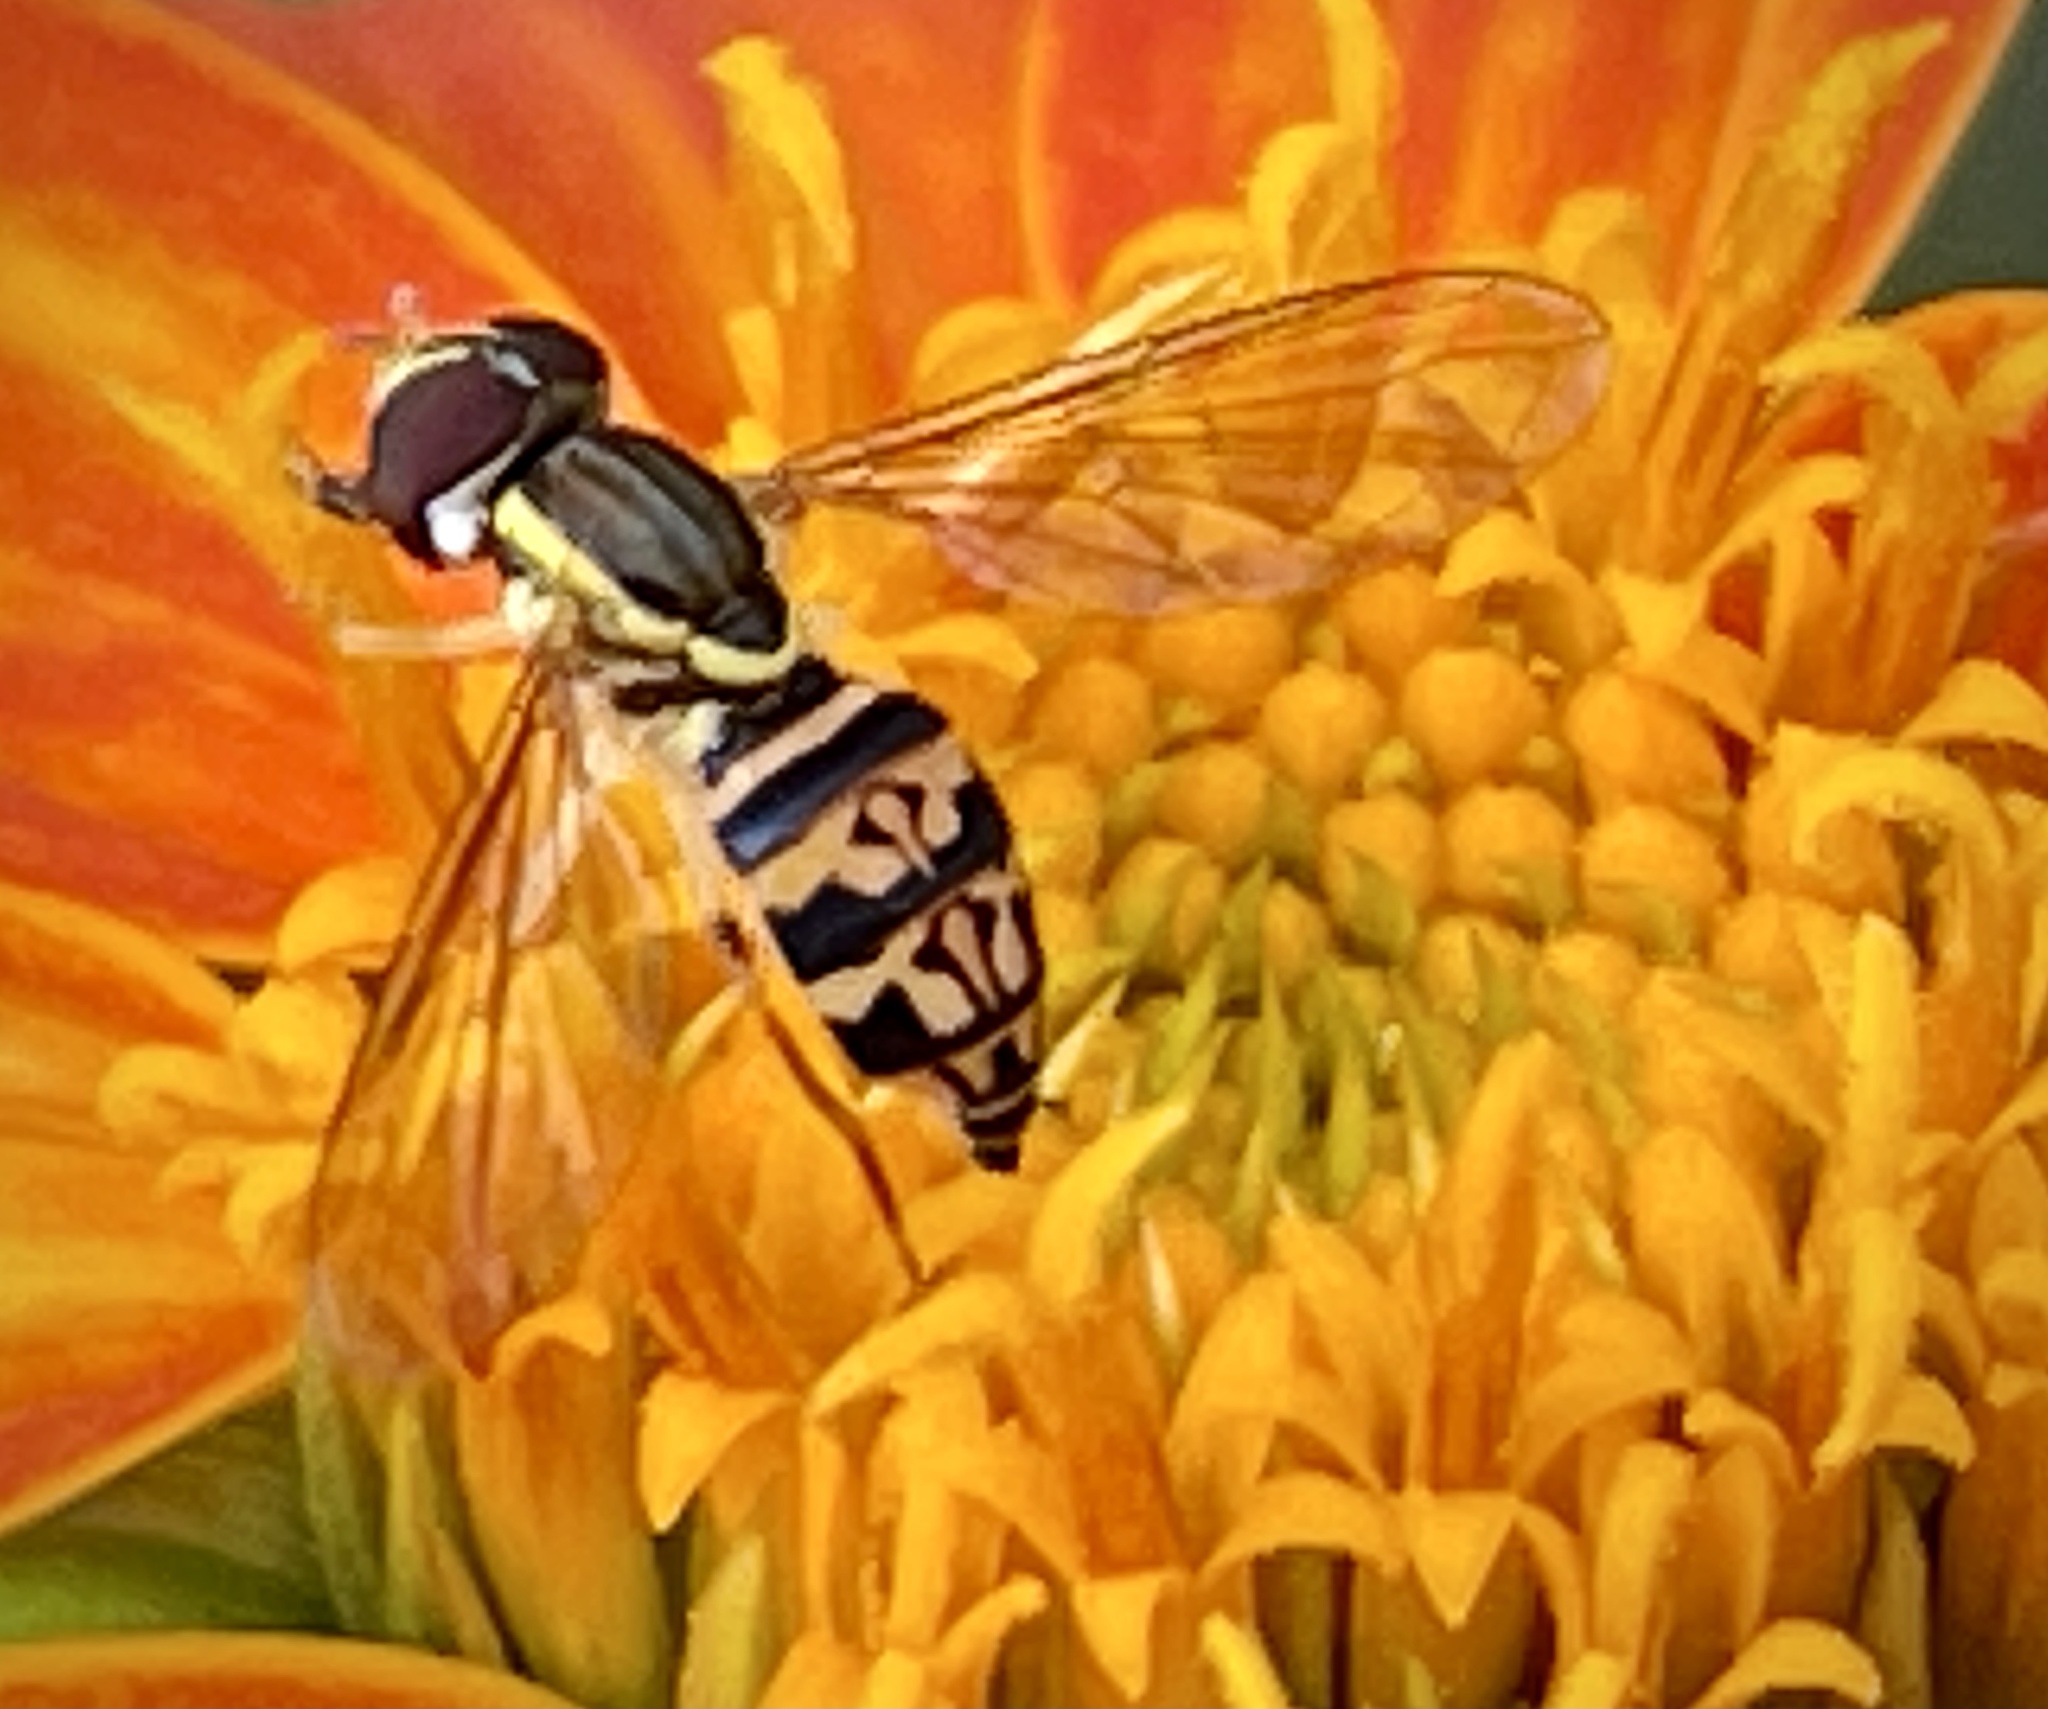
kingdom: Animalia
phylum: Arthropoda
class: Insecta
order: Diptera
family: Syrphidae
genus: Toxomerus
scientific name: Toxomerus geminatus
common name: Eastern calligrapher
